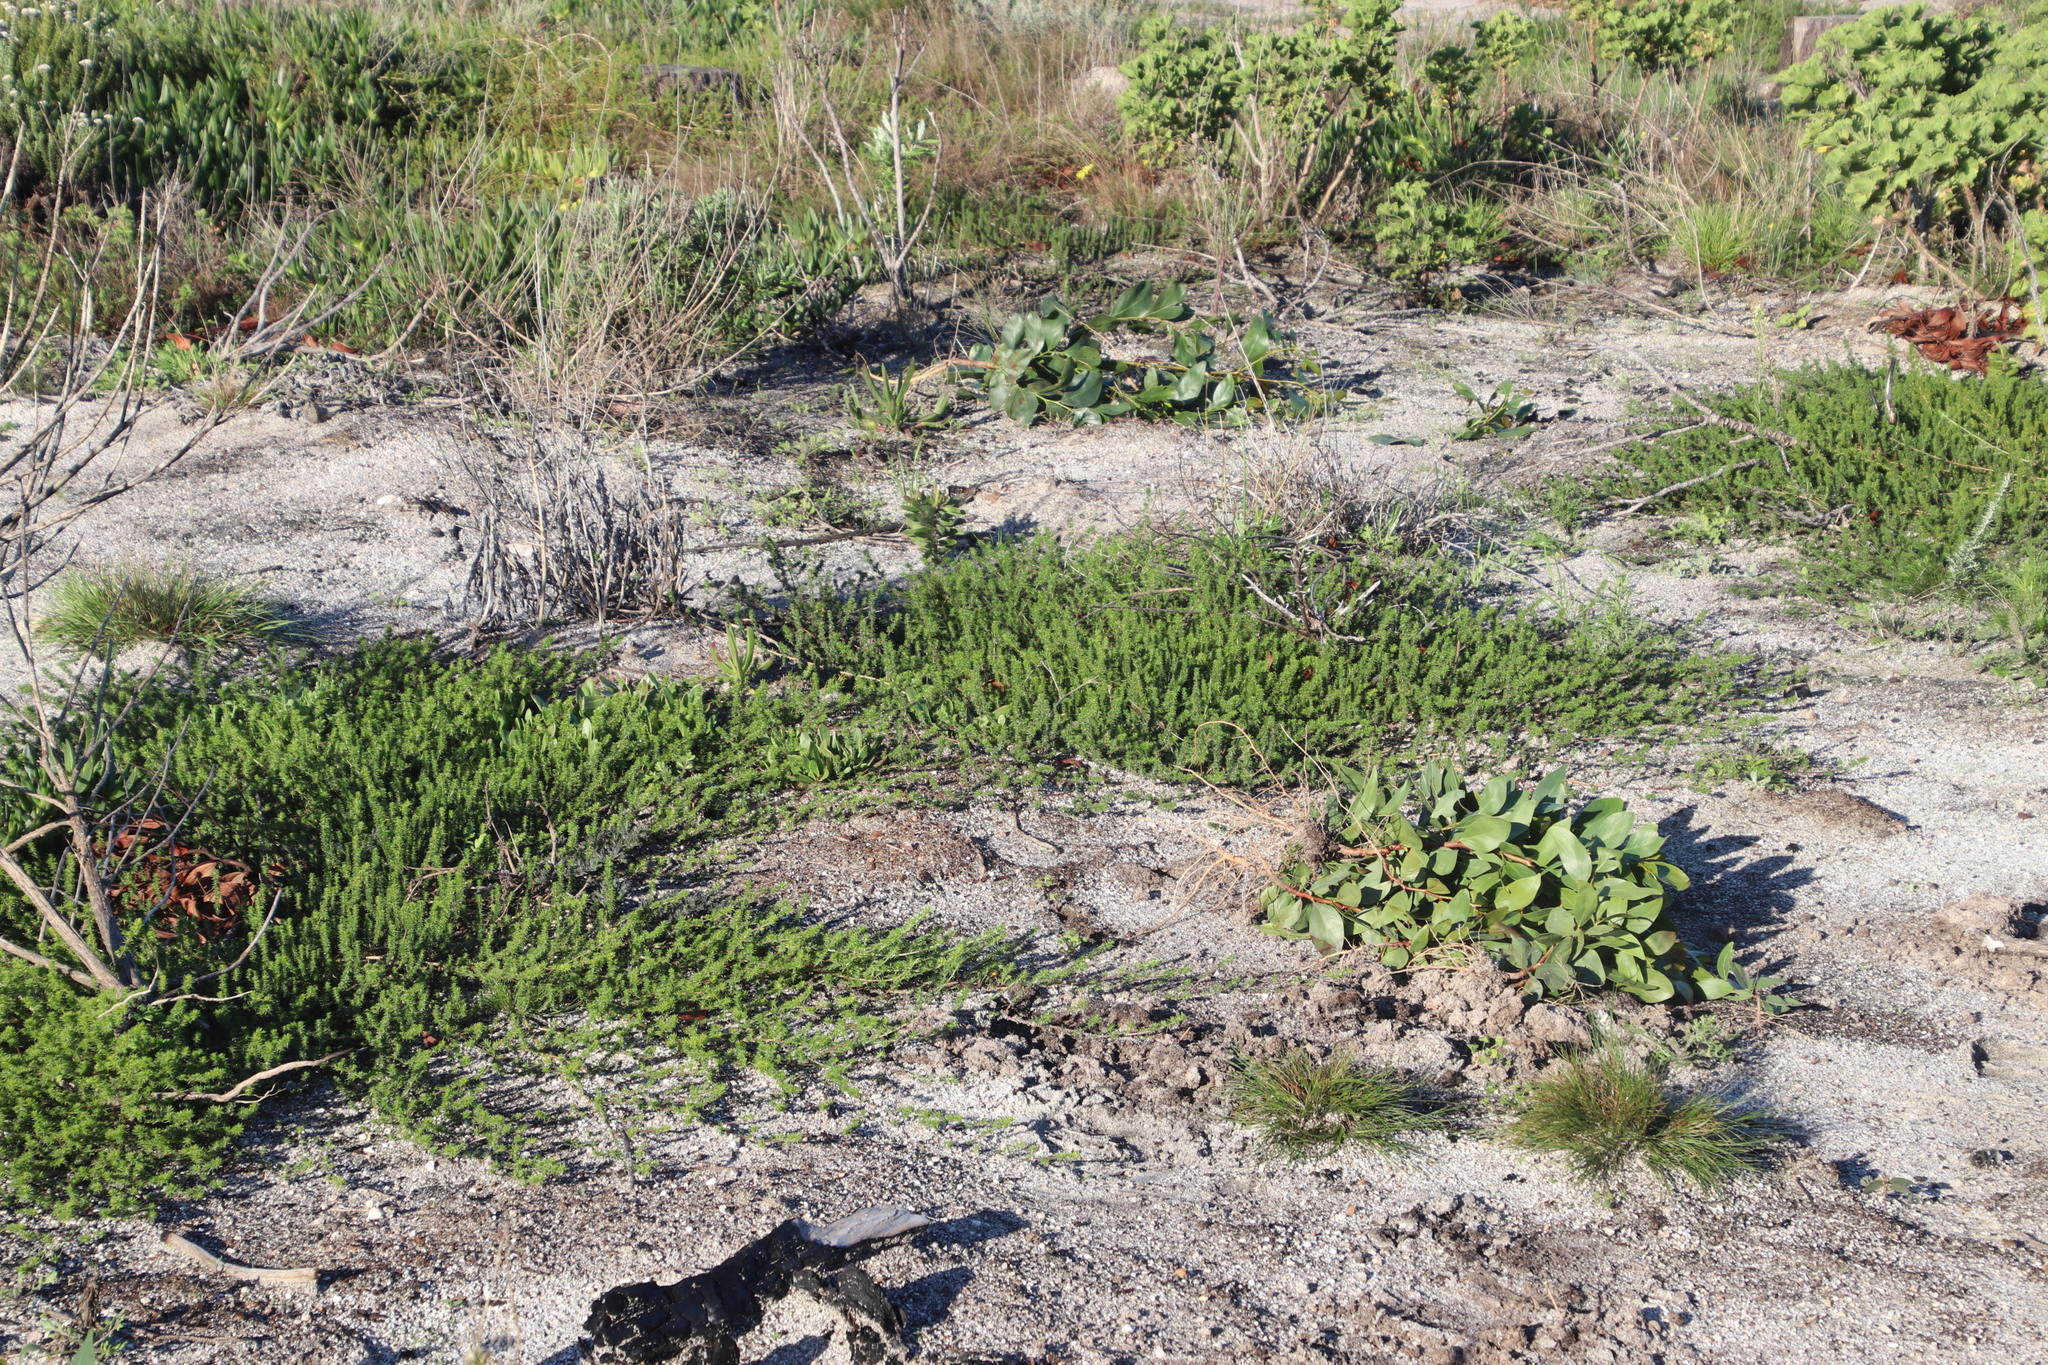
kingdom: Plantae
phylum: Tracheophyta
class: Magnoliopsida
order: Fabales
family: Fabaceae
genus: Aspalathus
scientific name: Aspalathus retroflexa
